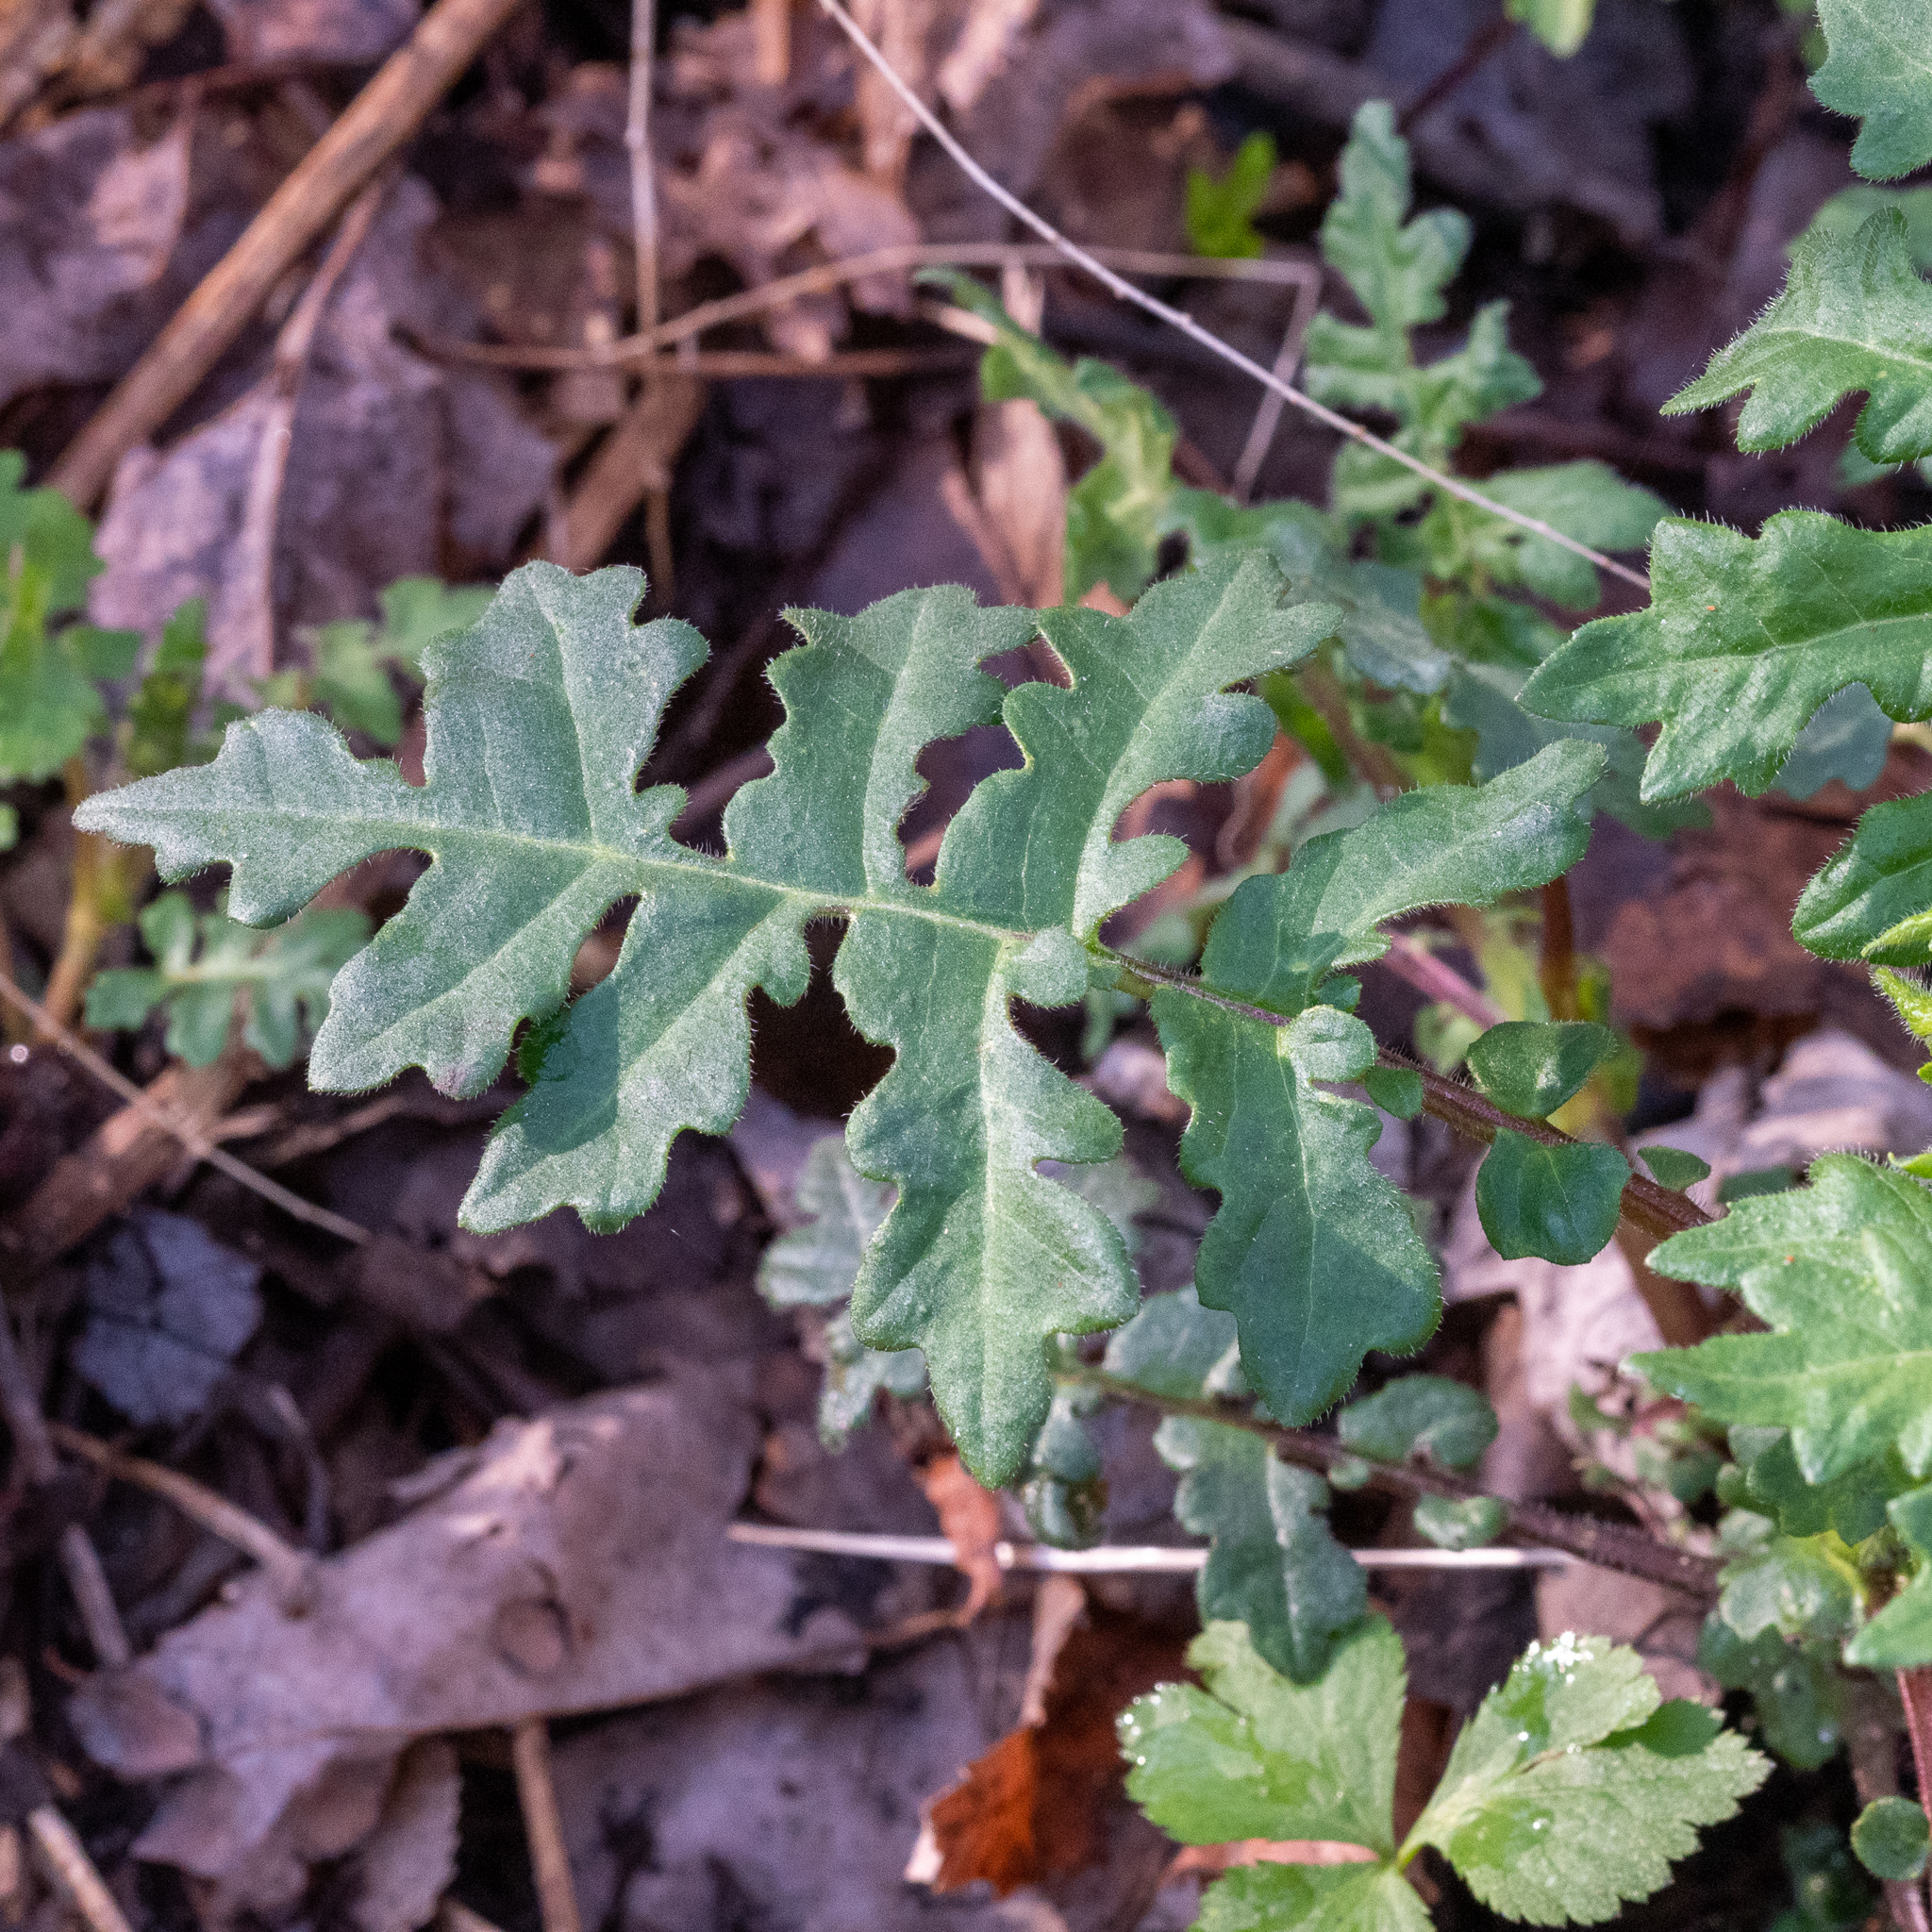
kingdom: Plantae
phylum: Tracheophyta
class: Magnoliopsida
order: Asterales
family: Asteraceae
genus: Polymnia
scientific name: Polymnia canadensis
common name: Pale-flowered leafcup
